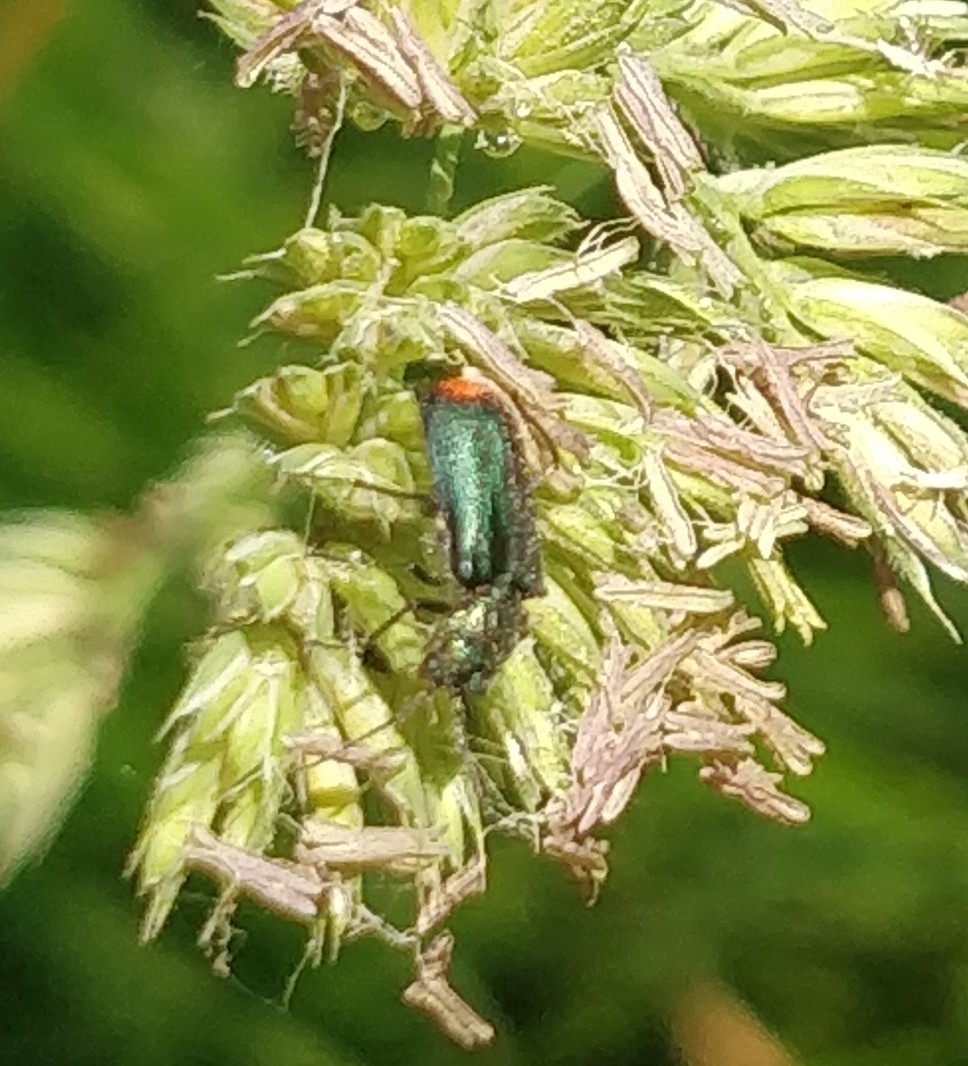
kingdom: Animalia
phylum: Arthropoda
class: Insecta
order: Coleoptera
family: Melyridae
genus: Malachius
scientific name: Malachius bipustulatus
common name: Malachite beetle
